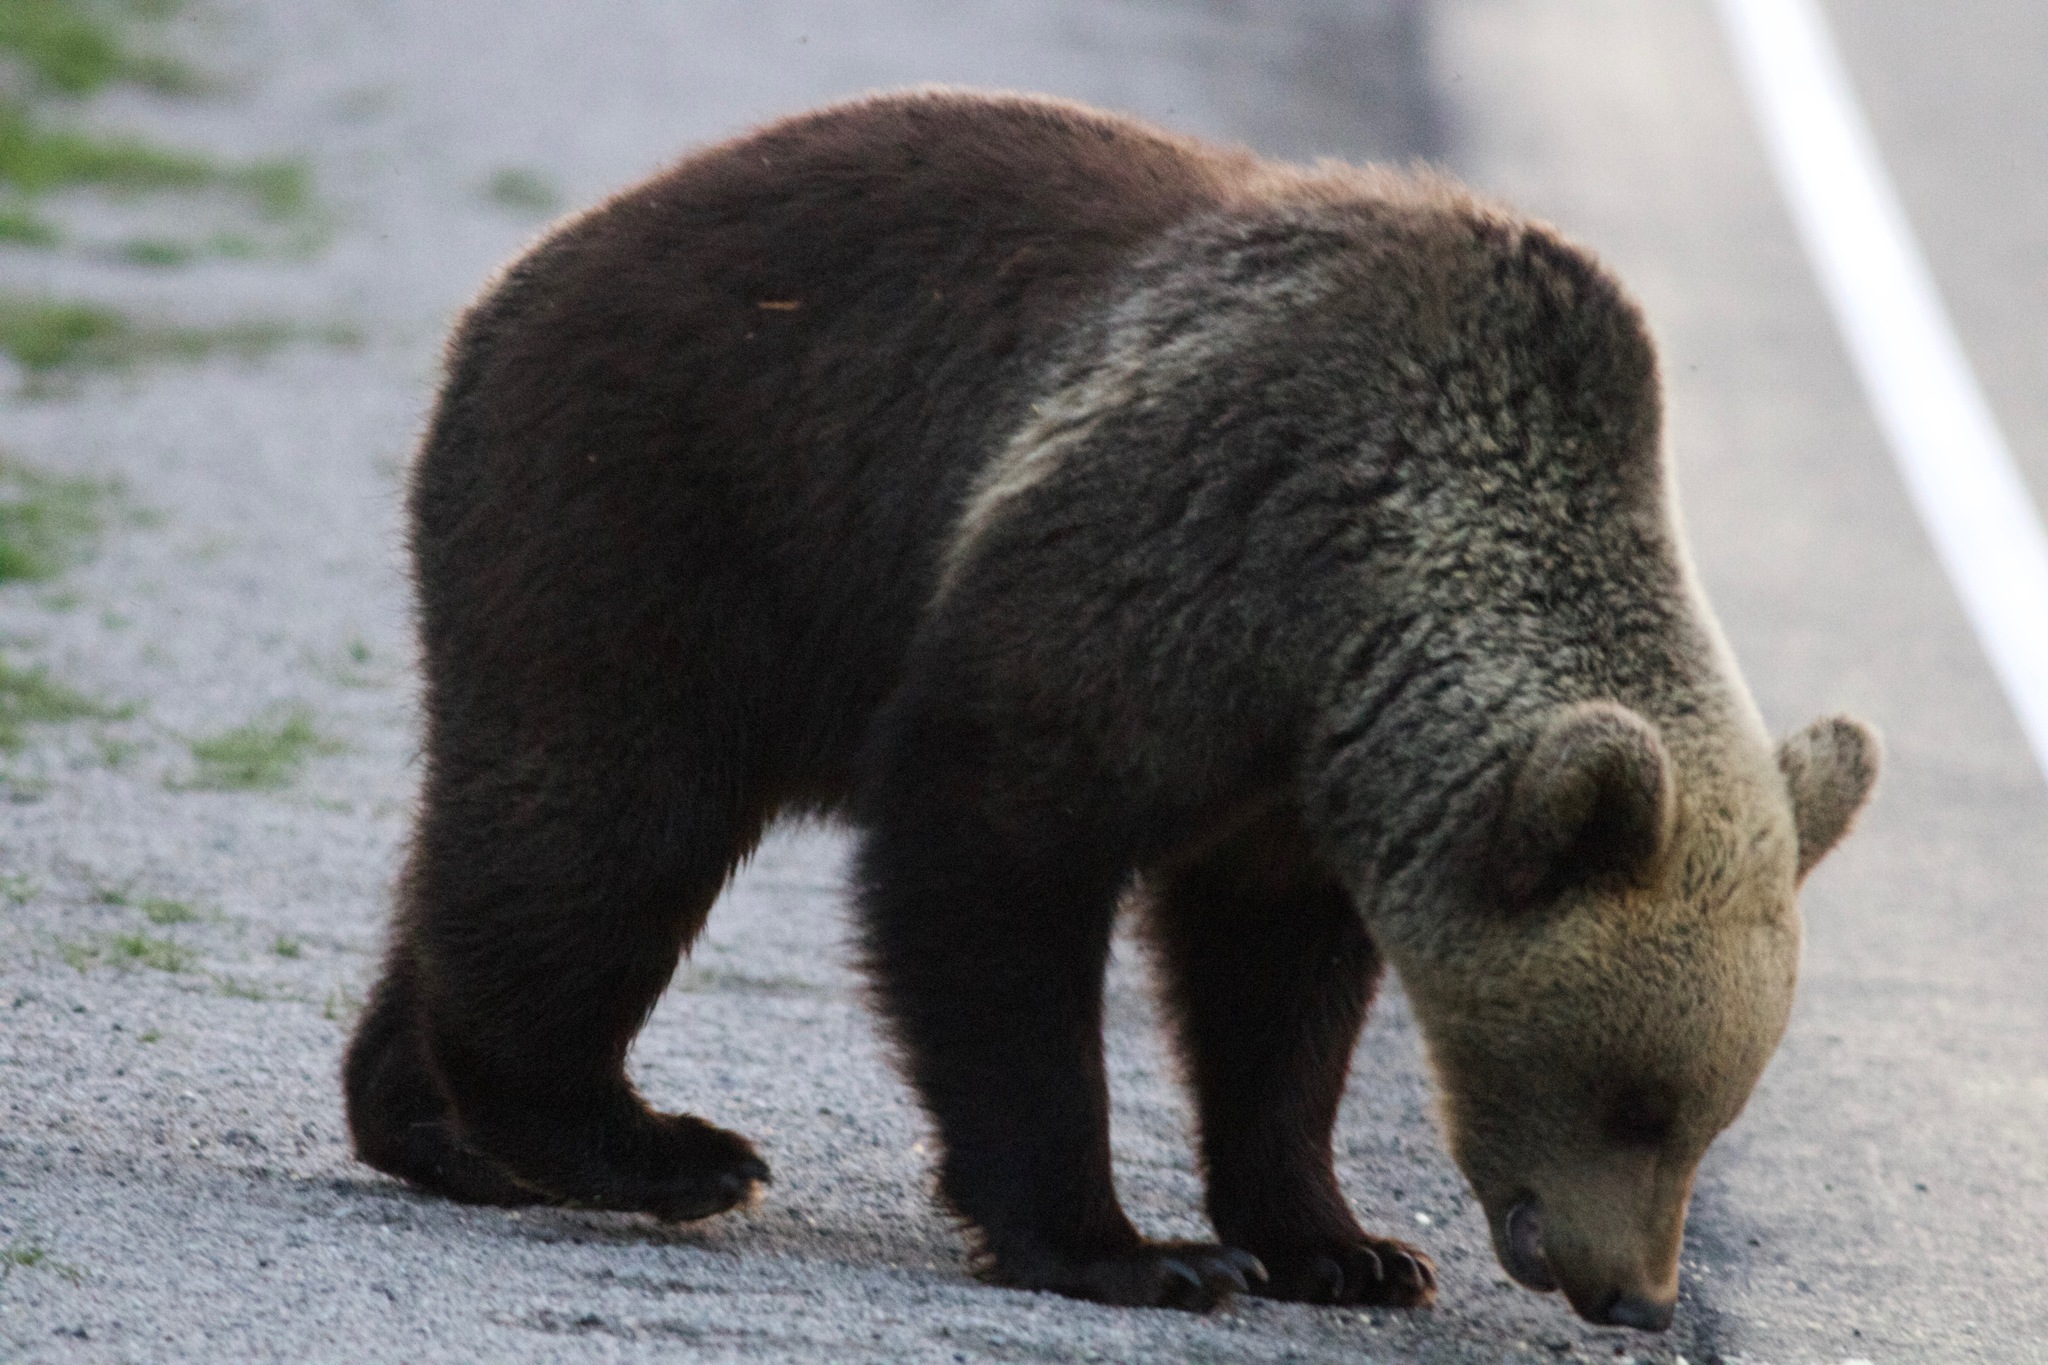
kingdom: Animalia
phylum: Chordata
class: Mammalia
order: Carnivora
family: Ursidae
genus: Ursus
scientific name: Ursus arctos
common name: Brown bear
